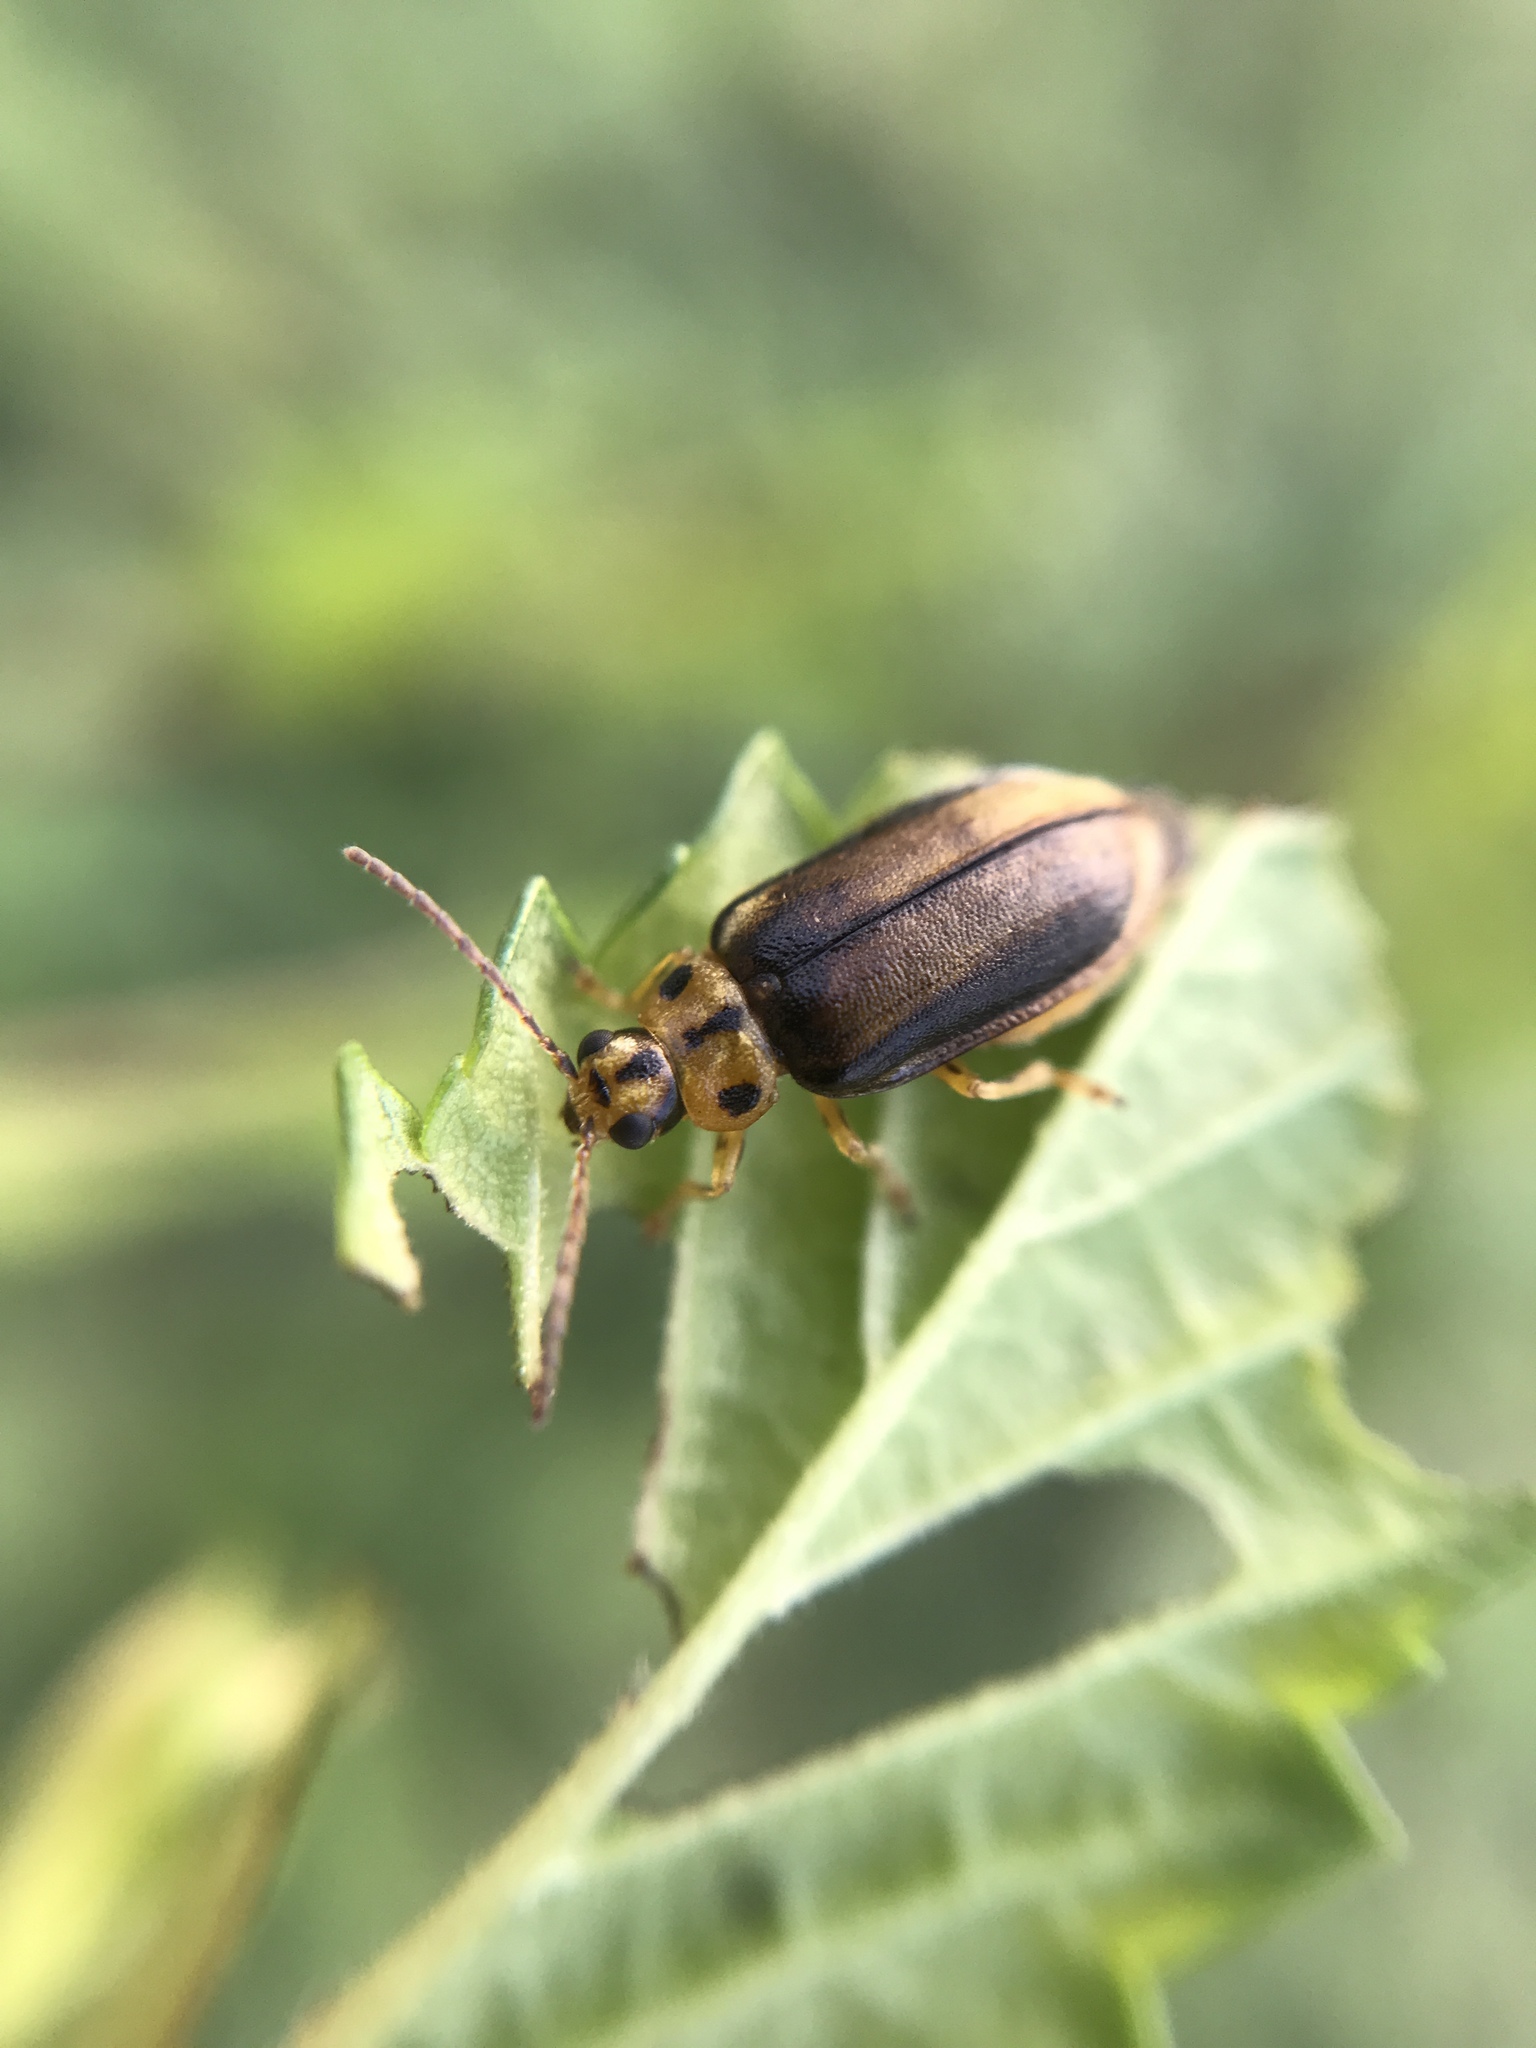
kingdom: Animalia
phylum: Arthropoda
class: Insecta
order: Coleoptera
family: Chrysomelidae
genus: Xanthogaleruca
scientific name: Xanthogaleruca luteola
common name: Elm leaf beetle
